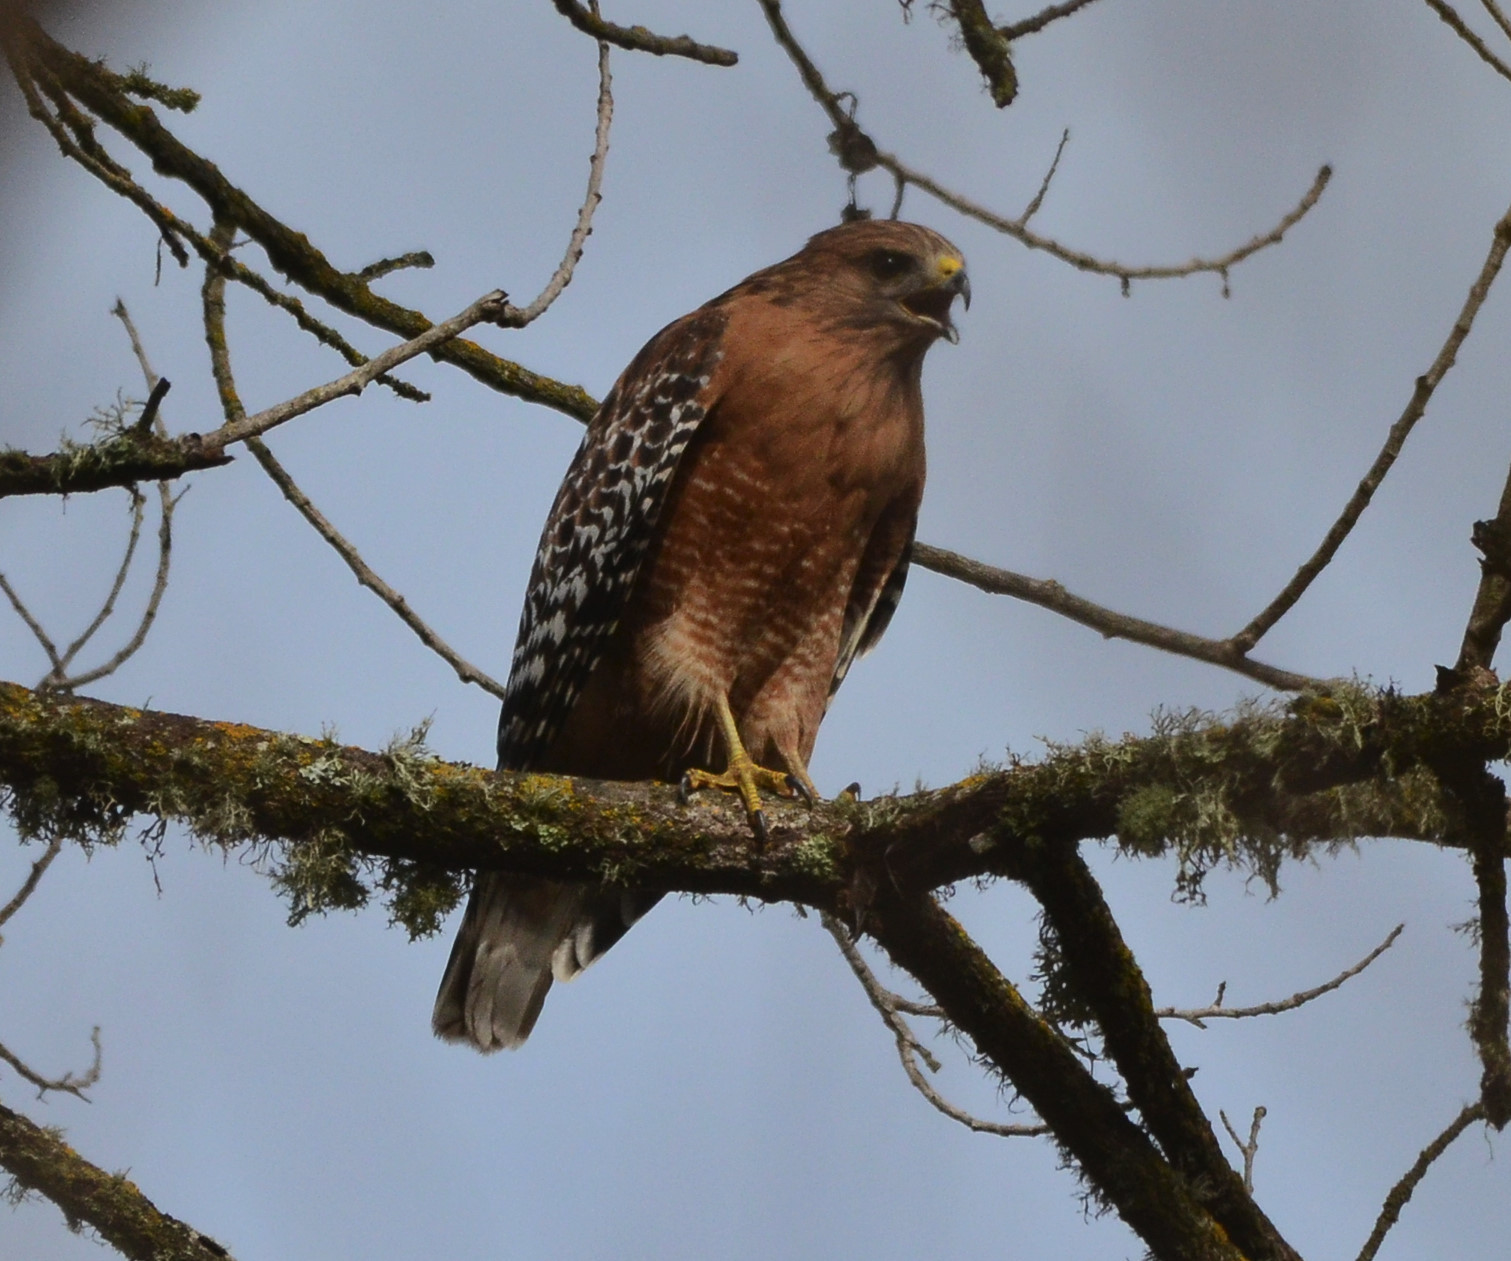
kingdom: Animalia
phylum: Chordata
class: Aves
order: Accipitriformes
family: Accipitridae
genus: Buteo
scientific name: Buteo lineatus
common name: Red-shouldered hawk
